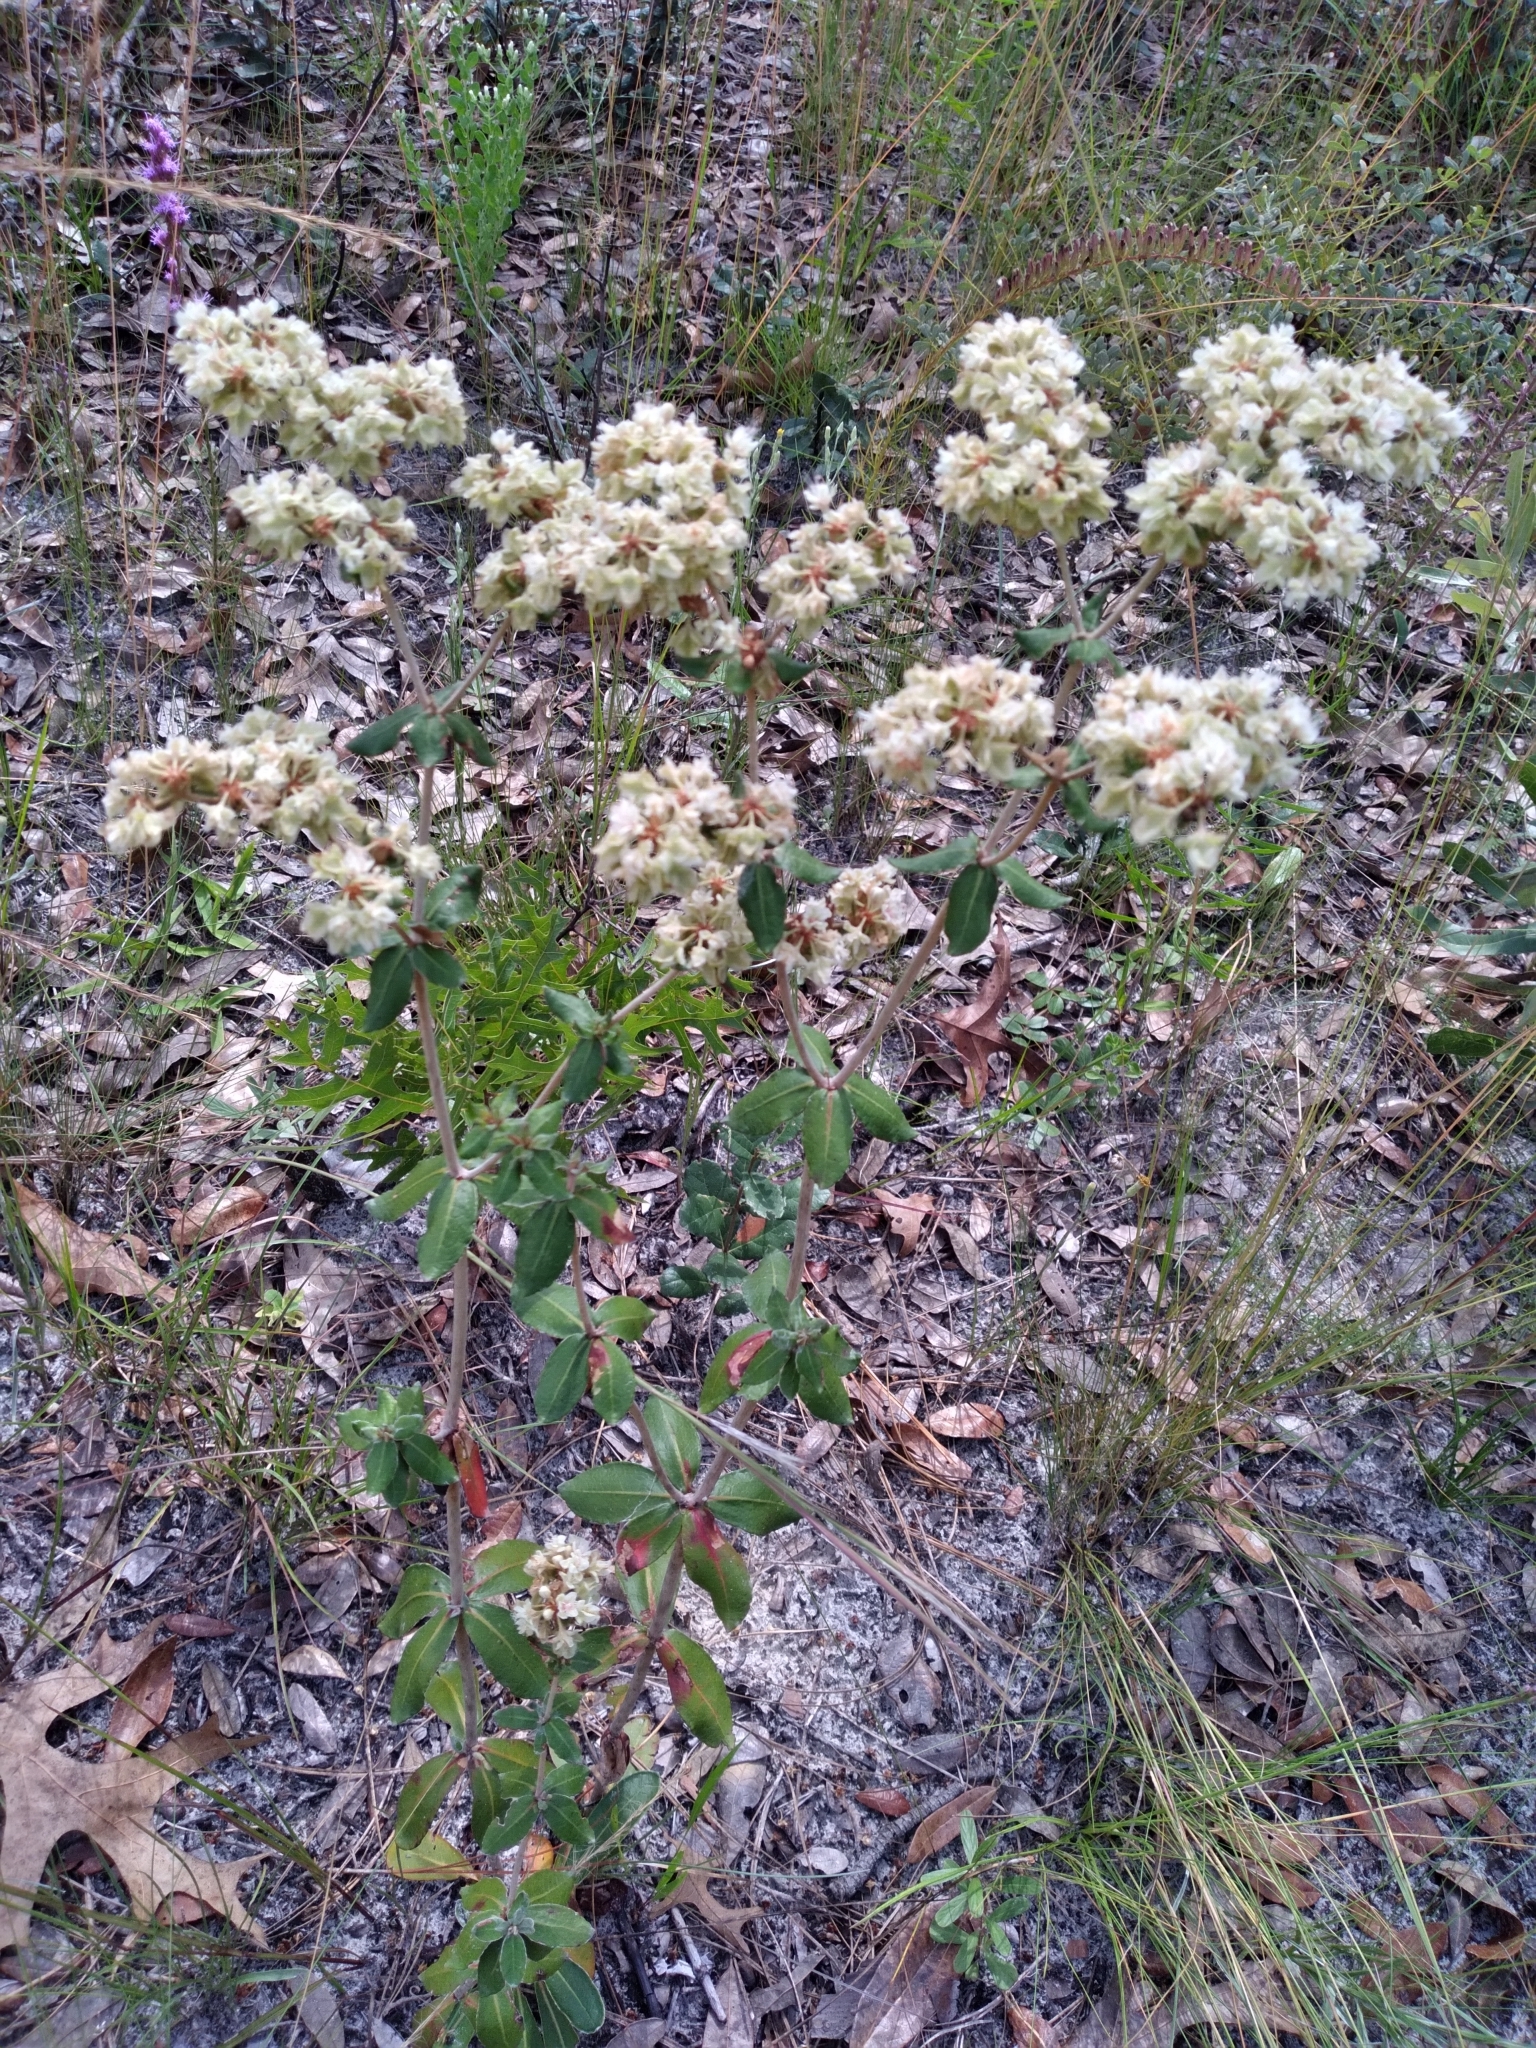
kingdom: Plantae
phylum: Tracheophyta
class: Magnoliopsida
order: Caryophyllales
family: Polygonaceae
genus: Eriogonum
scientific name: Eriogonum tomentosum
